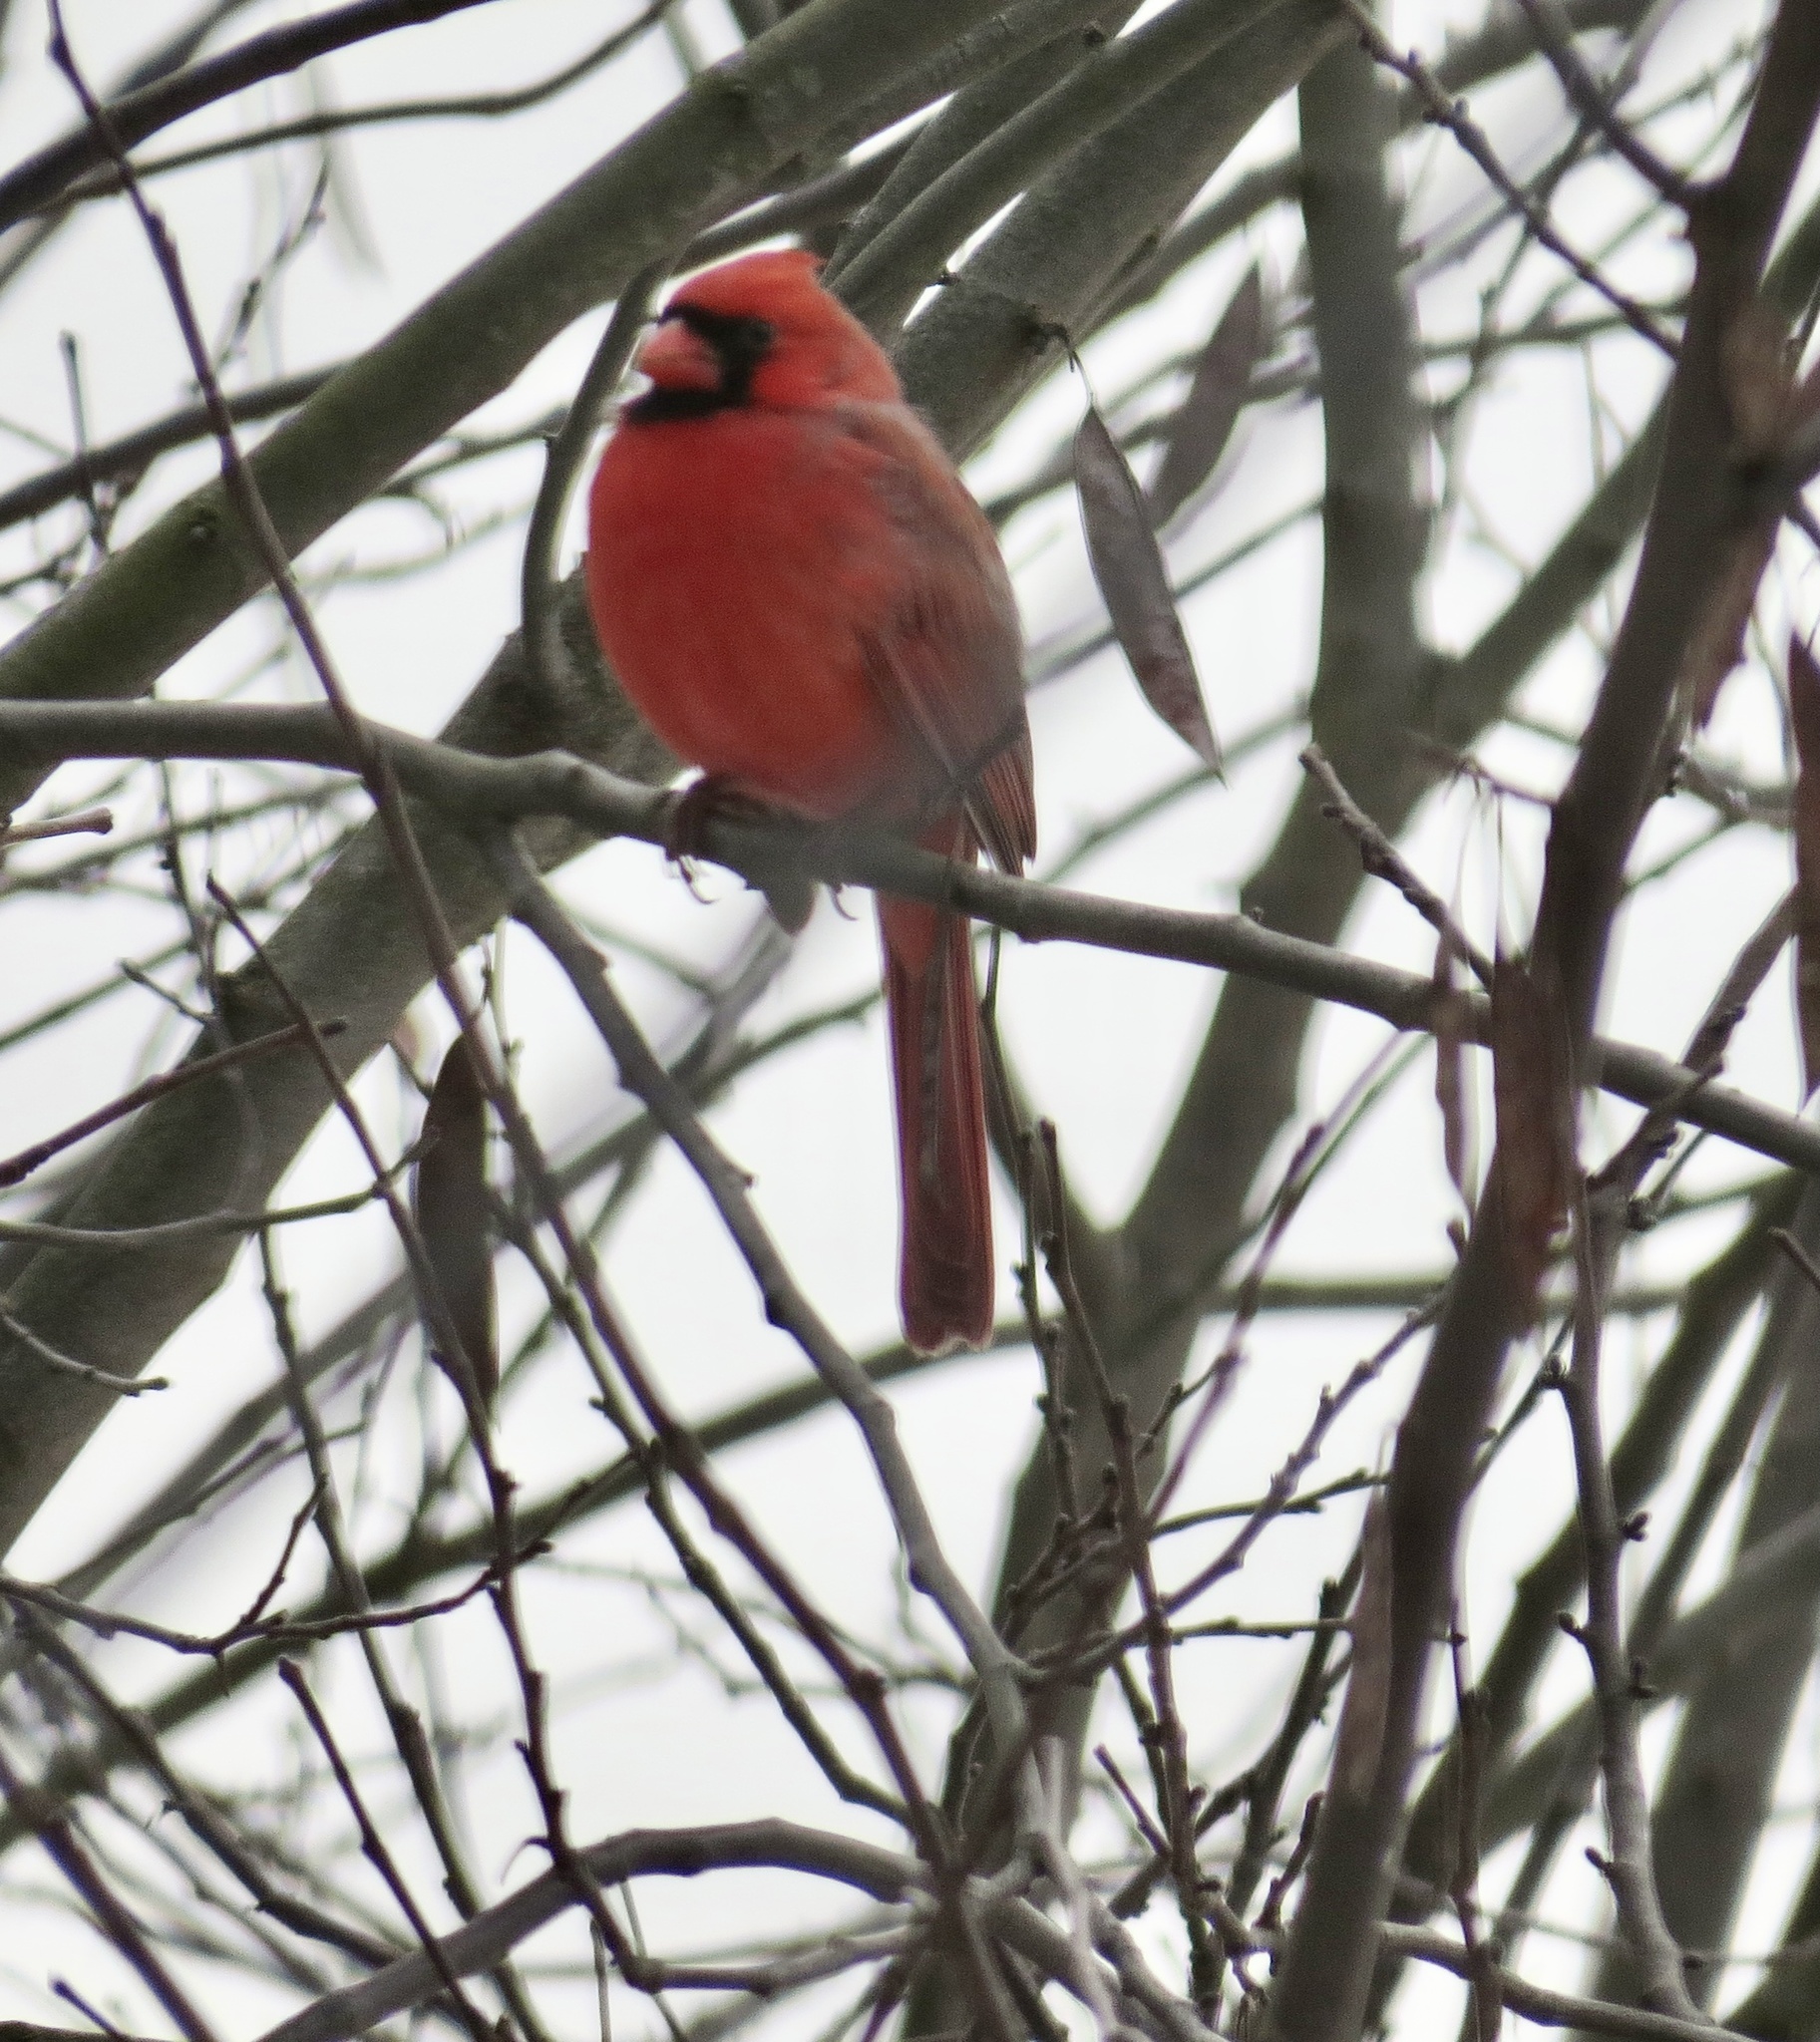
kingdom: Animalia
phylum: Chordata
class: Aves
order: Passeriformes
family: Cardinalidae
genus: Cardinalis
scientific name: Cardinalis cardinalis
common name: Northern cardinal
